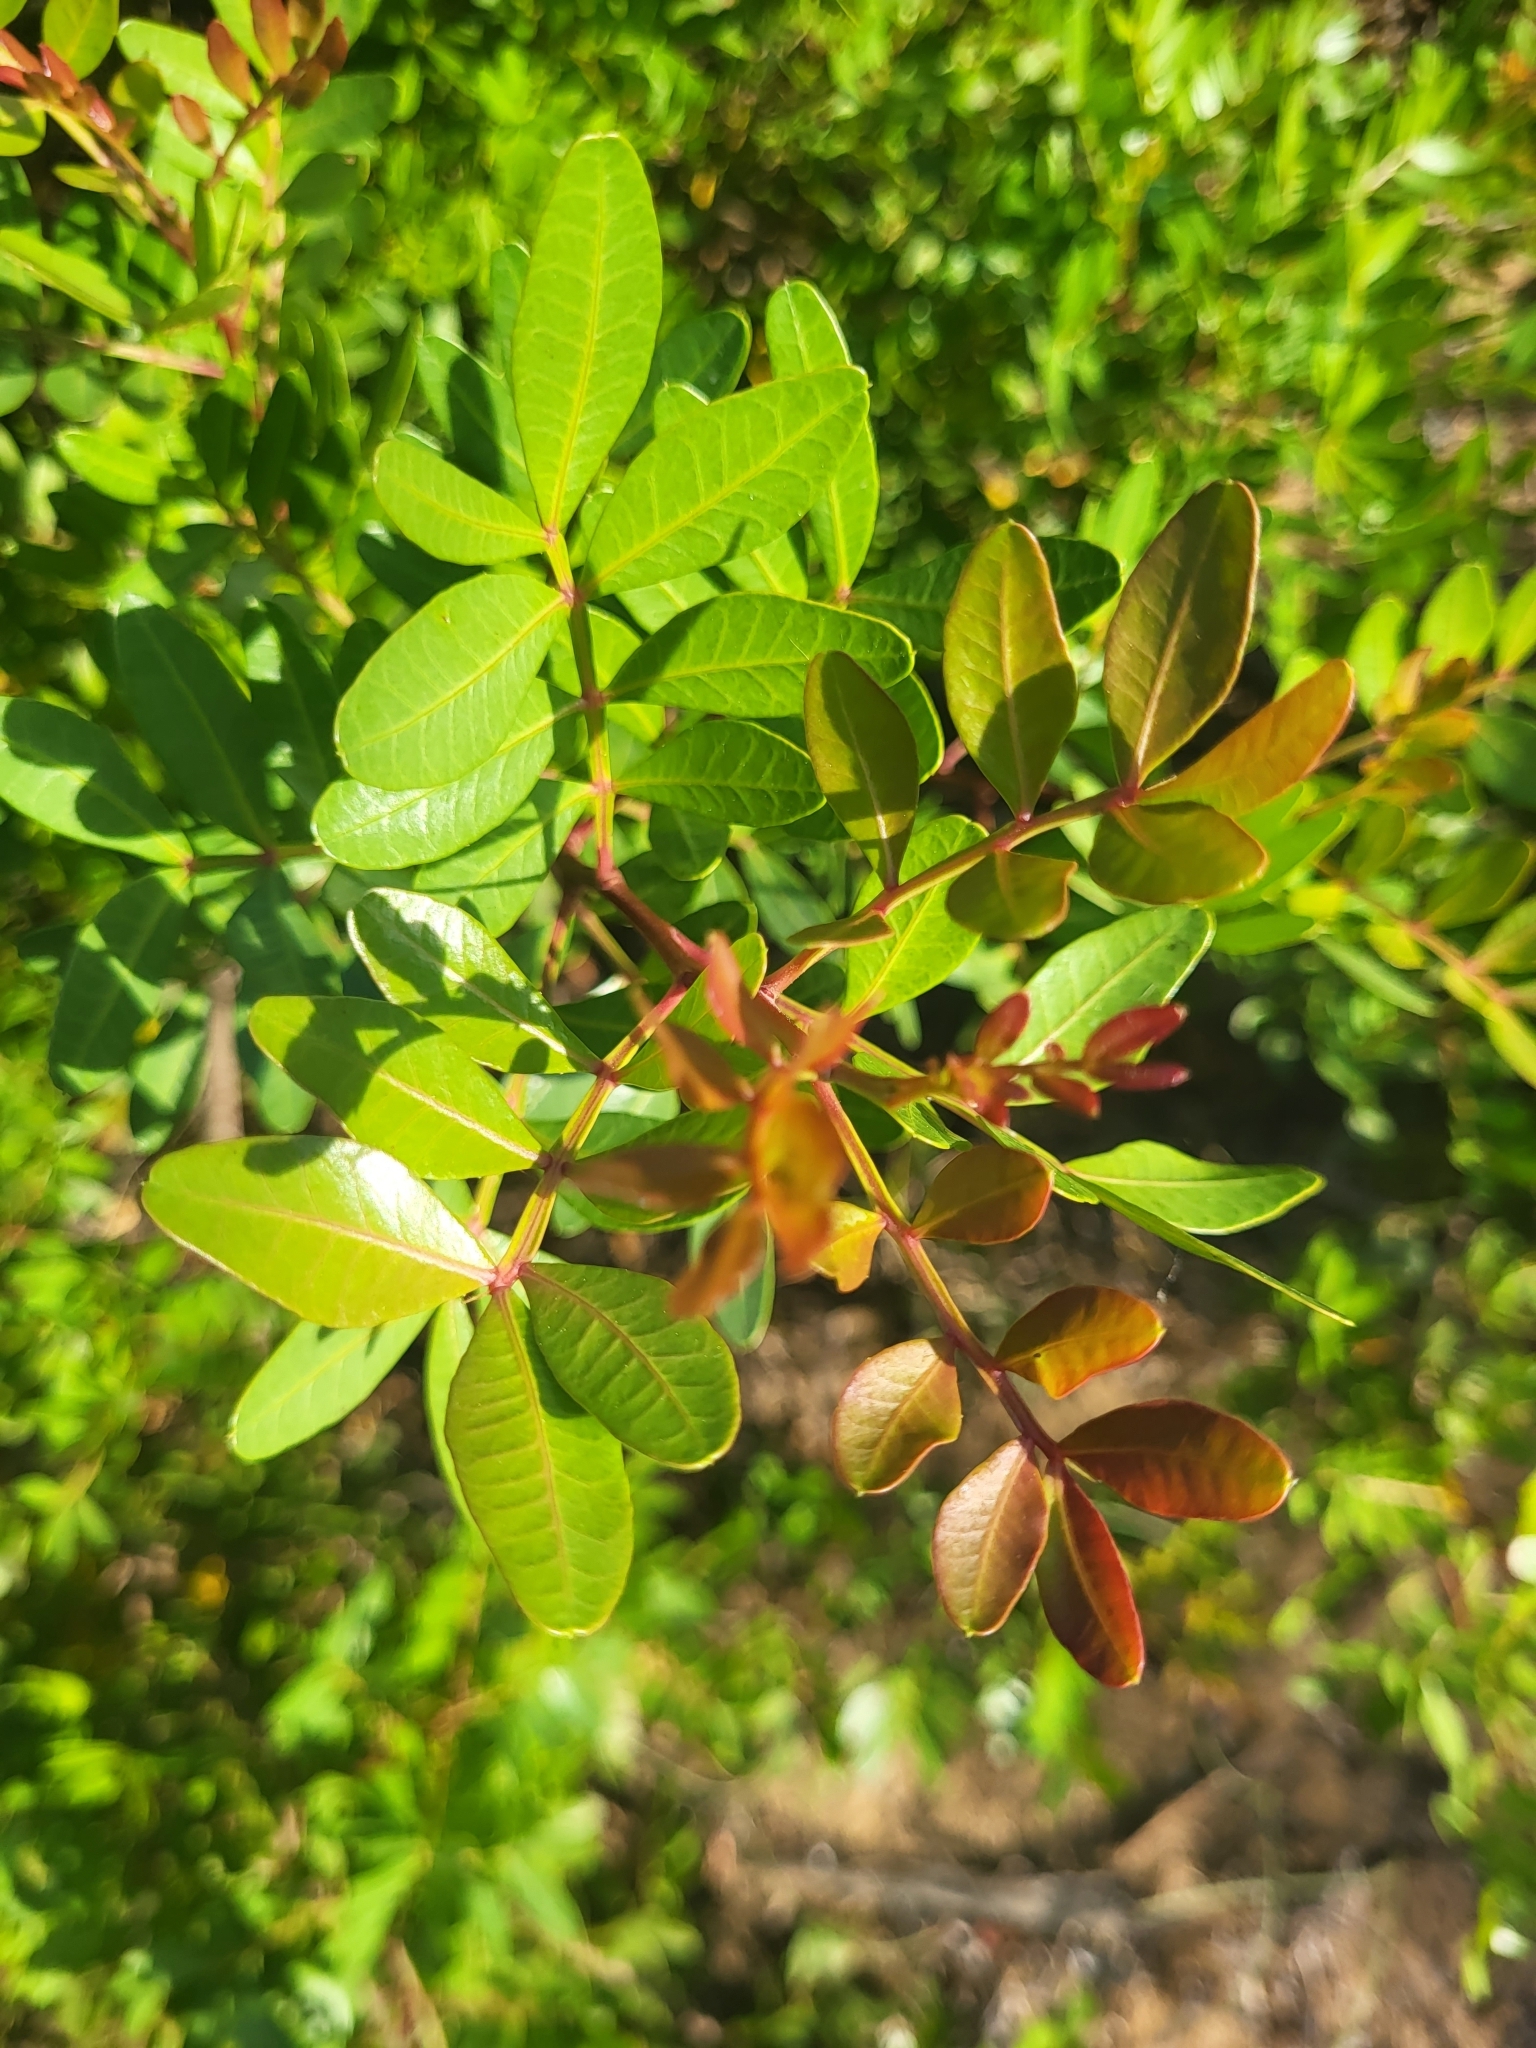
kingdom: Plantae
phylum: Tracheophyta
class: Magnoliopsida
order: Sapindales
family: Anacardiaceae
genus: Pistacia
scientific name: Pistacia lentiscus
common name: Lentisk
